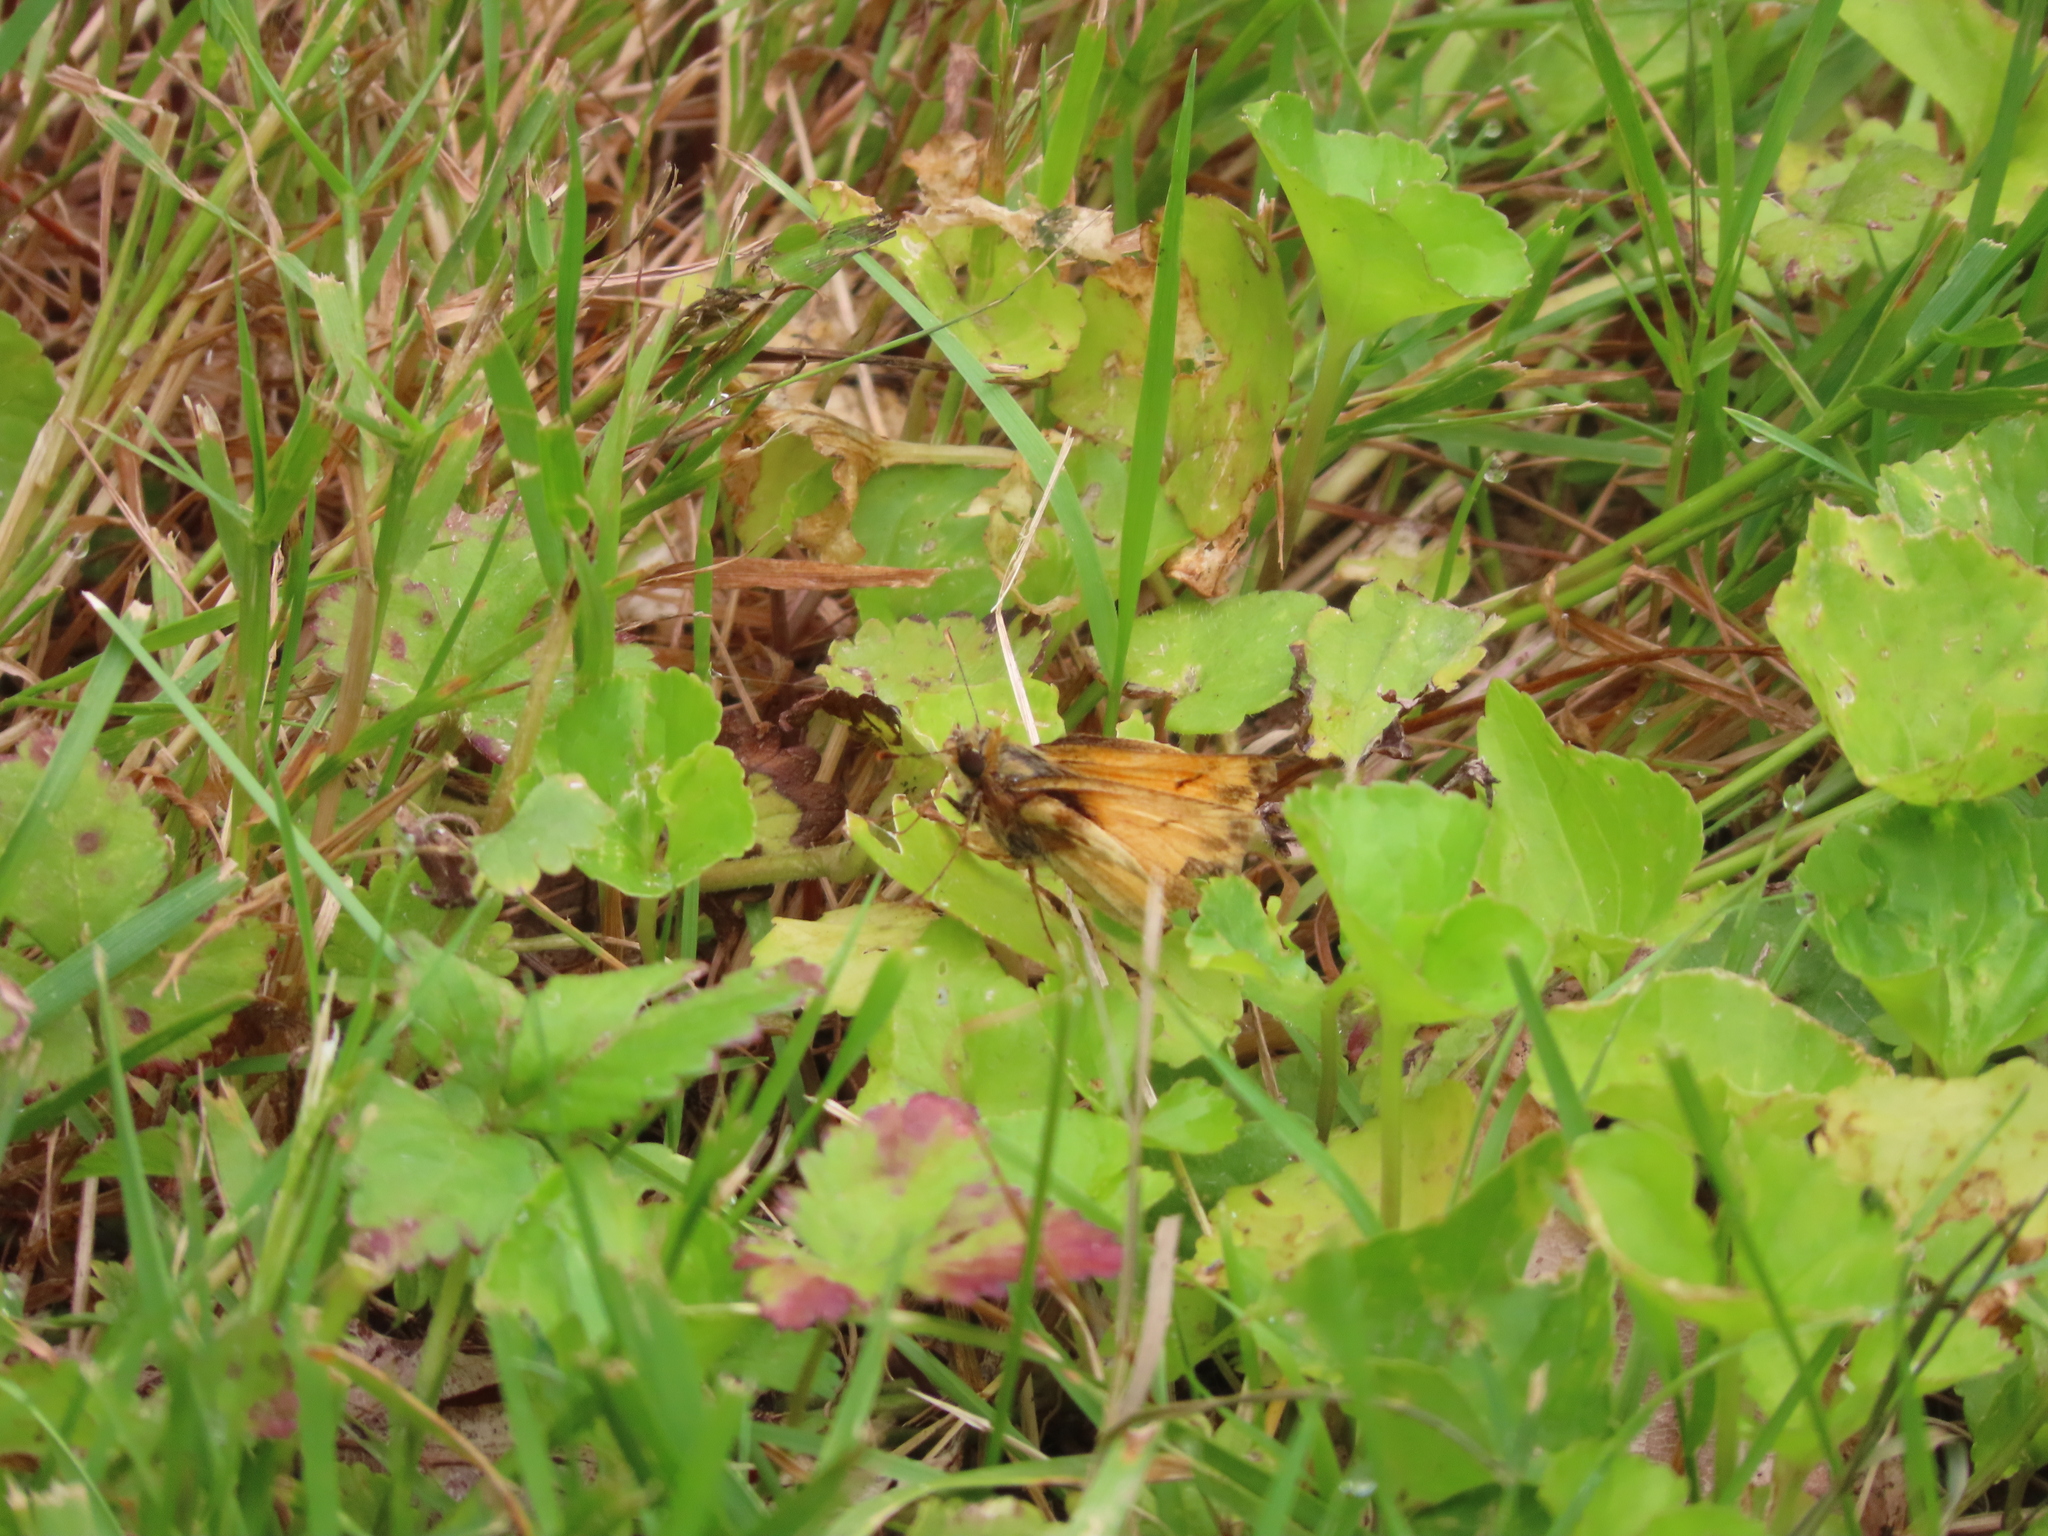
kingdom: Animalia
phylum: Arthropoda
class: Insecta
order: Lepidoptera
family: Hesperiidae
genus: Lon
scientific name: Lon zabulon
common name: Zabulon skipper
